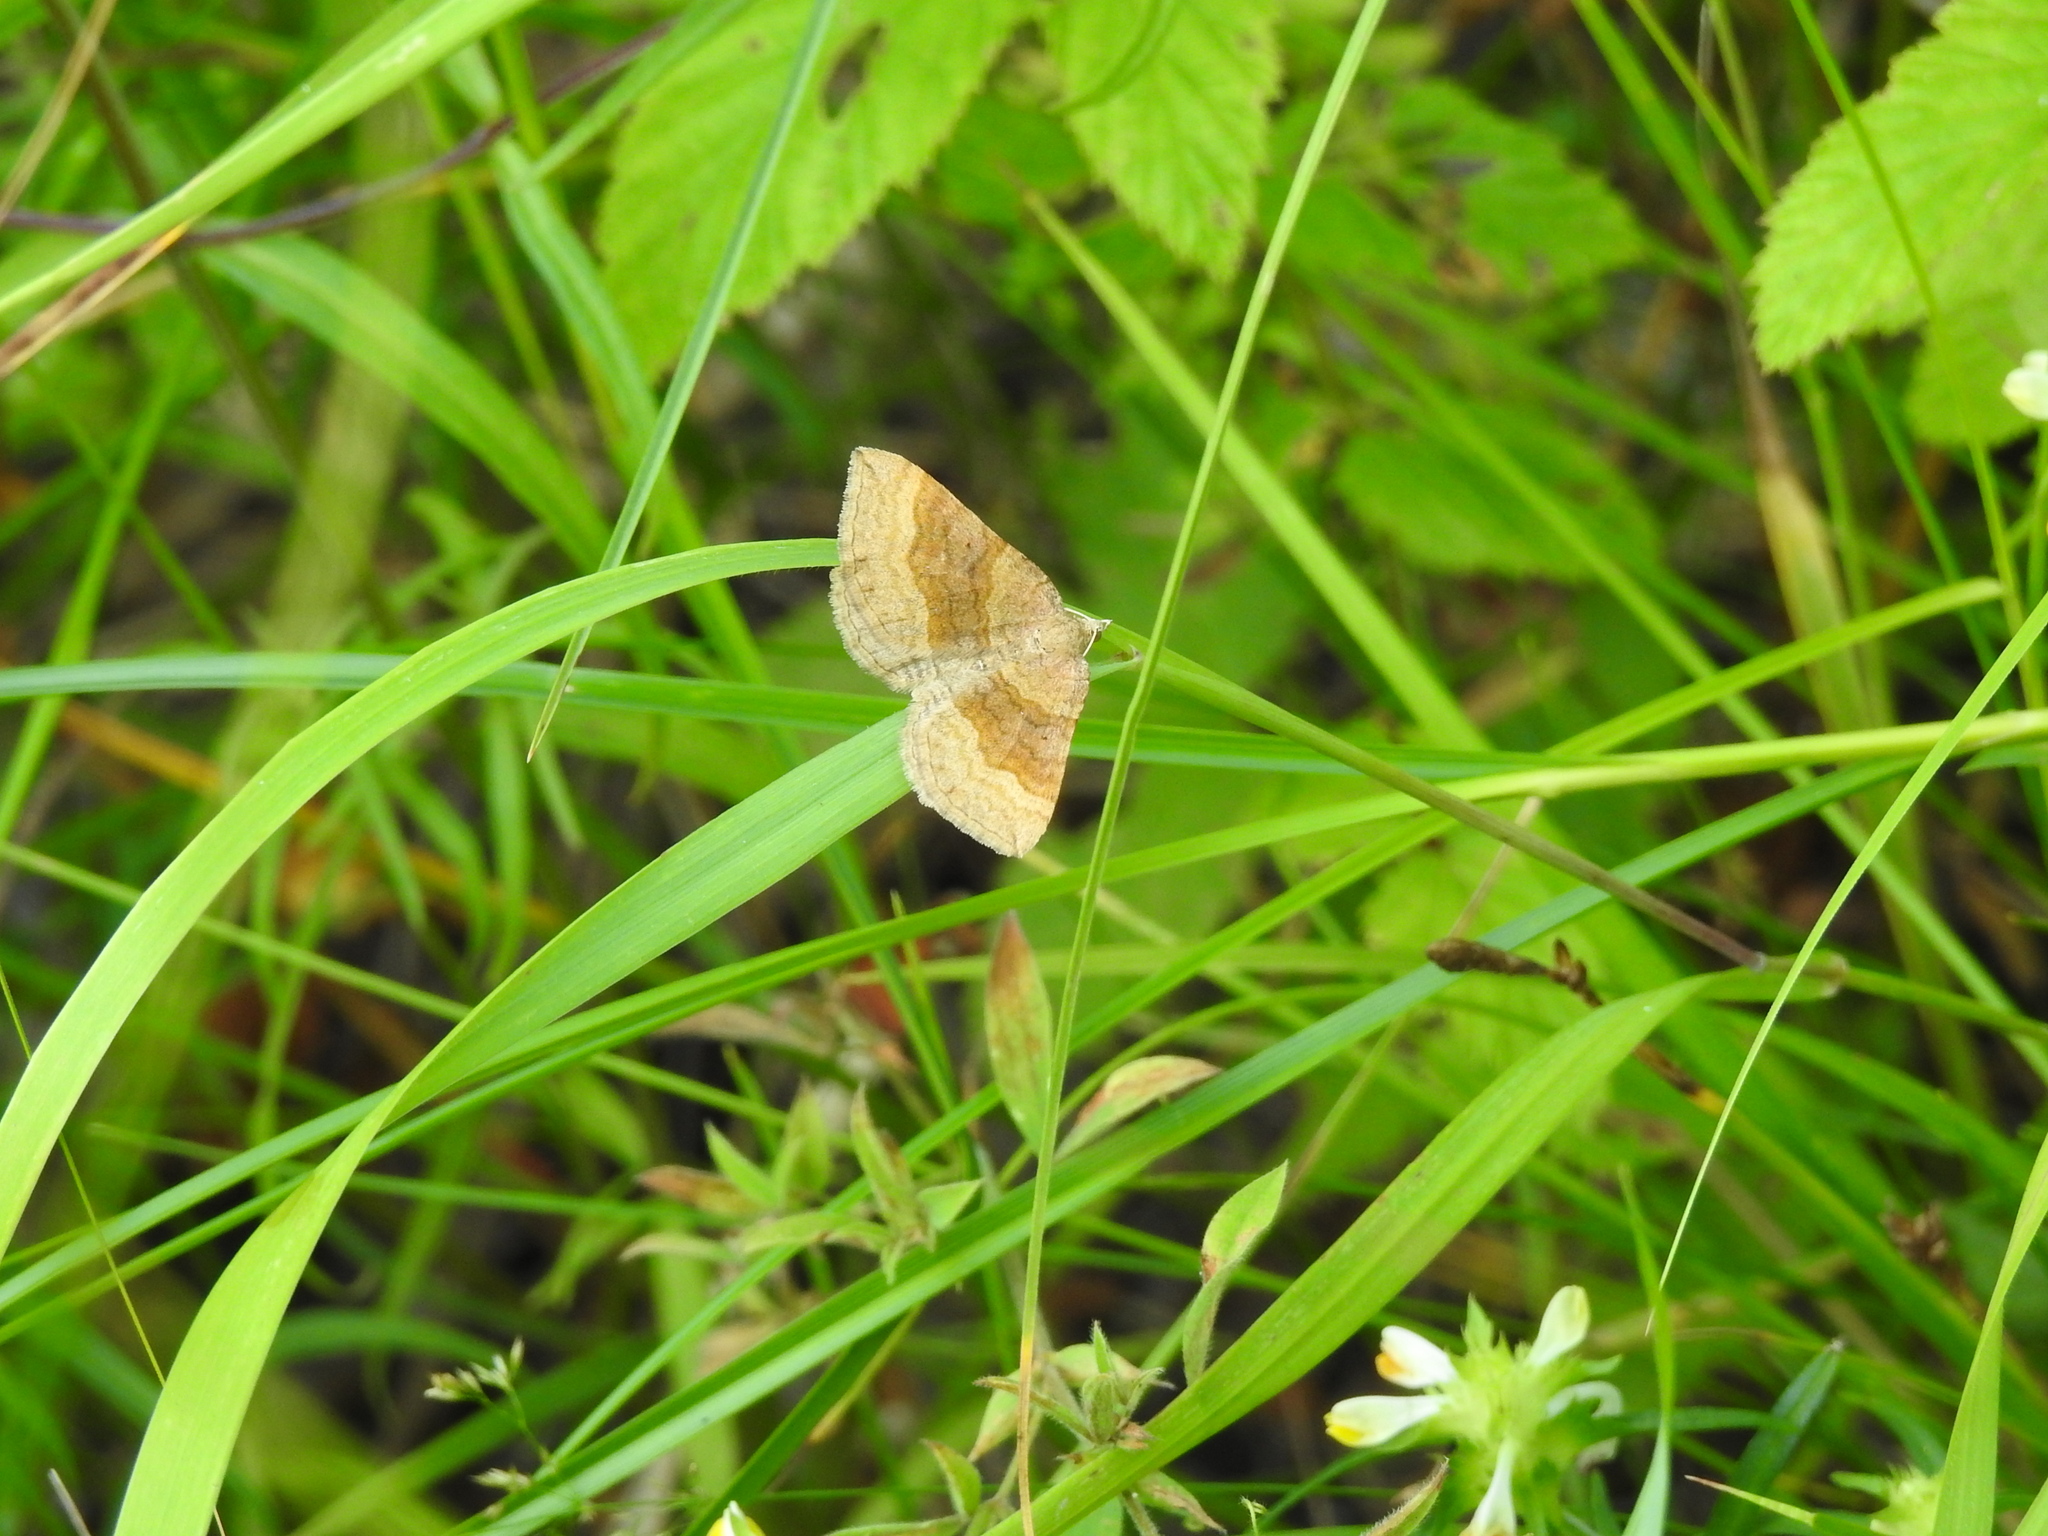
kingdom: Animalia
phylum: Arthropoda
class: Insecta
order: Lepidoptera
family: Geometridae
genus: Scotopteryx
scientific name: Scotopteryx chenopodiata
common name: Shaded broad-bar
